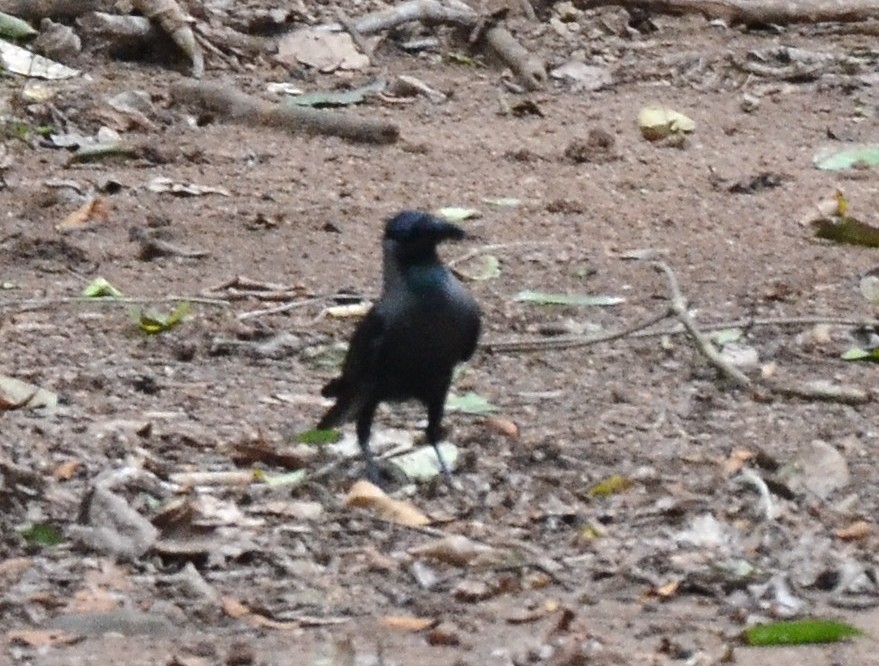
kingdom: Animalia
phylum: Chordata
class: Aves
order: Passeriformes
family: Corvidae
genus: Corvus
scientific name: Corvus splendens
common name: House crow
